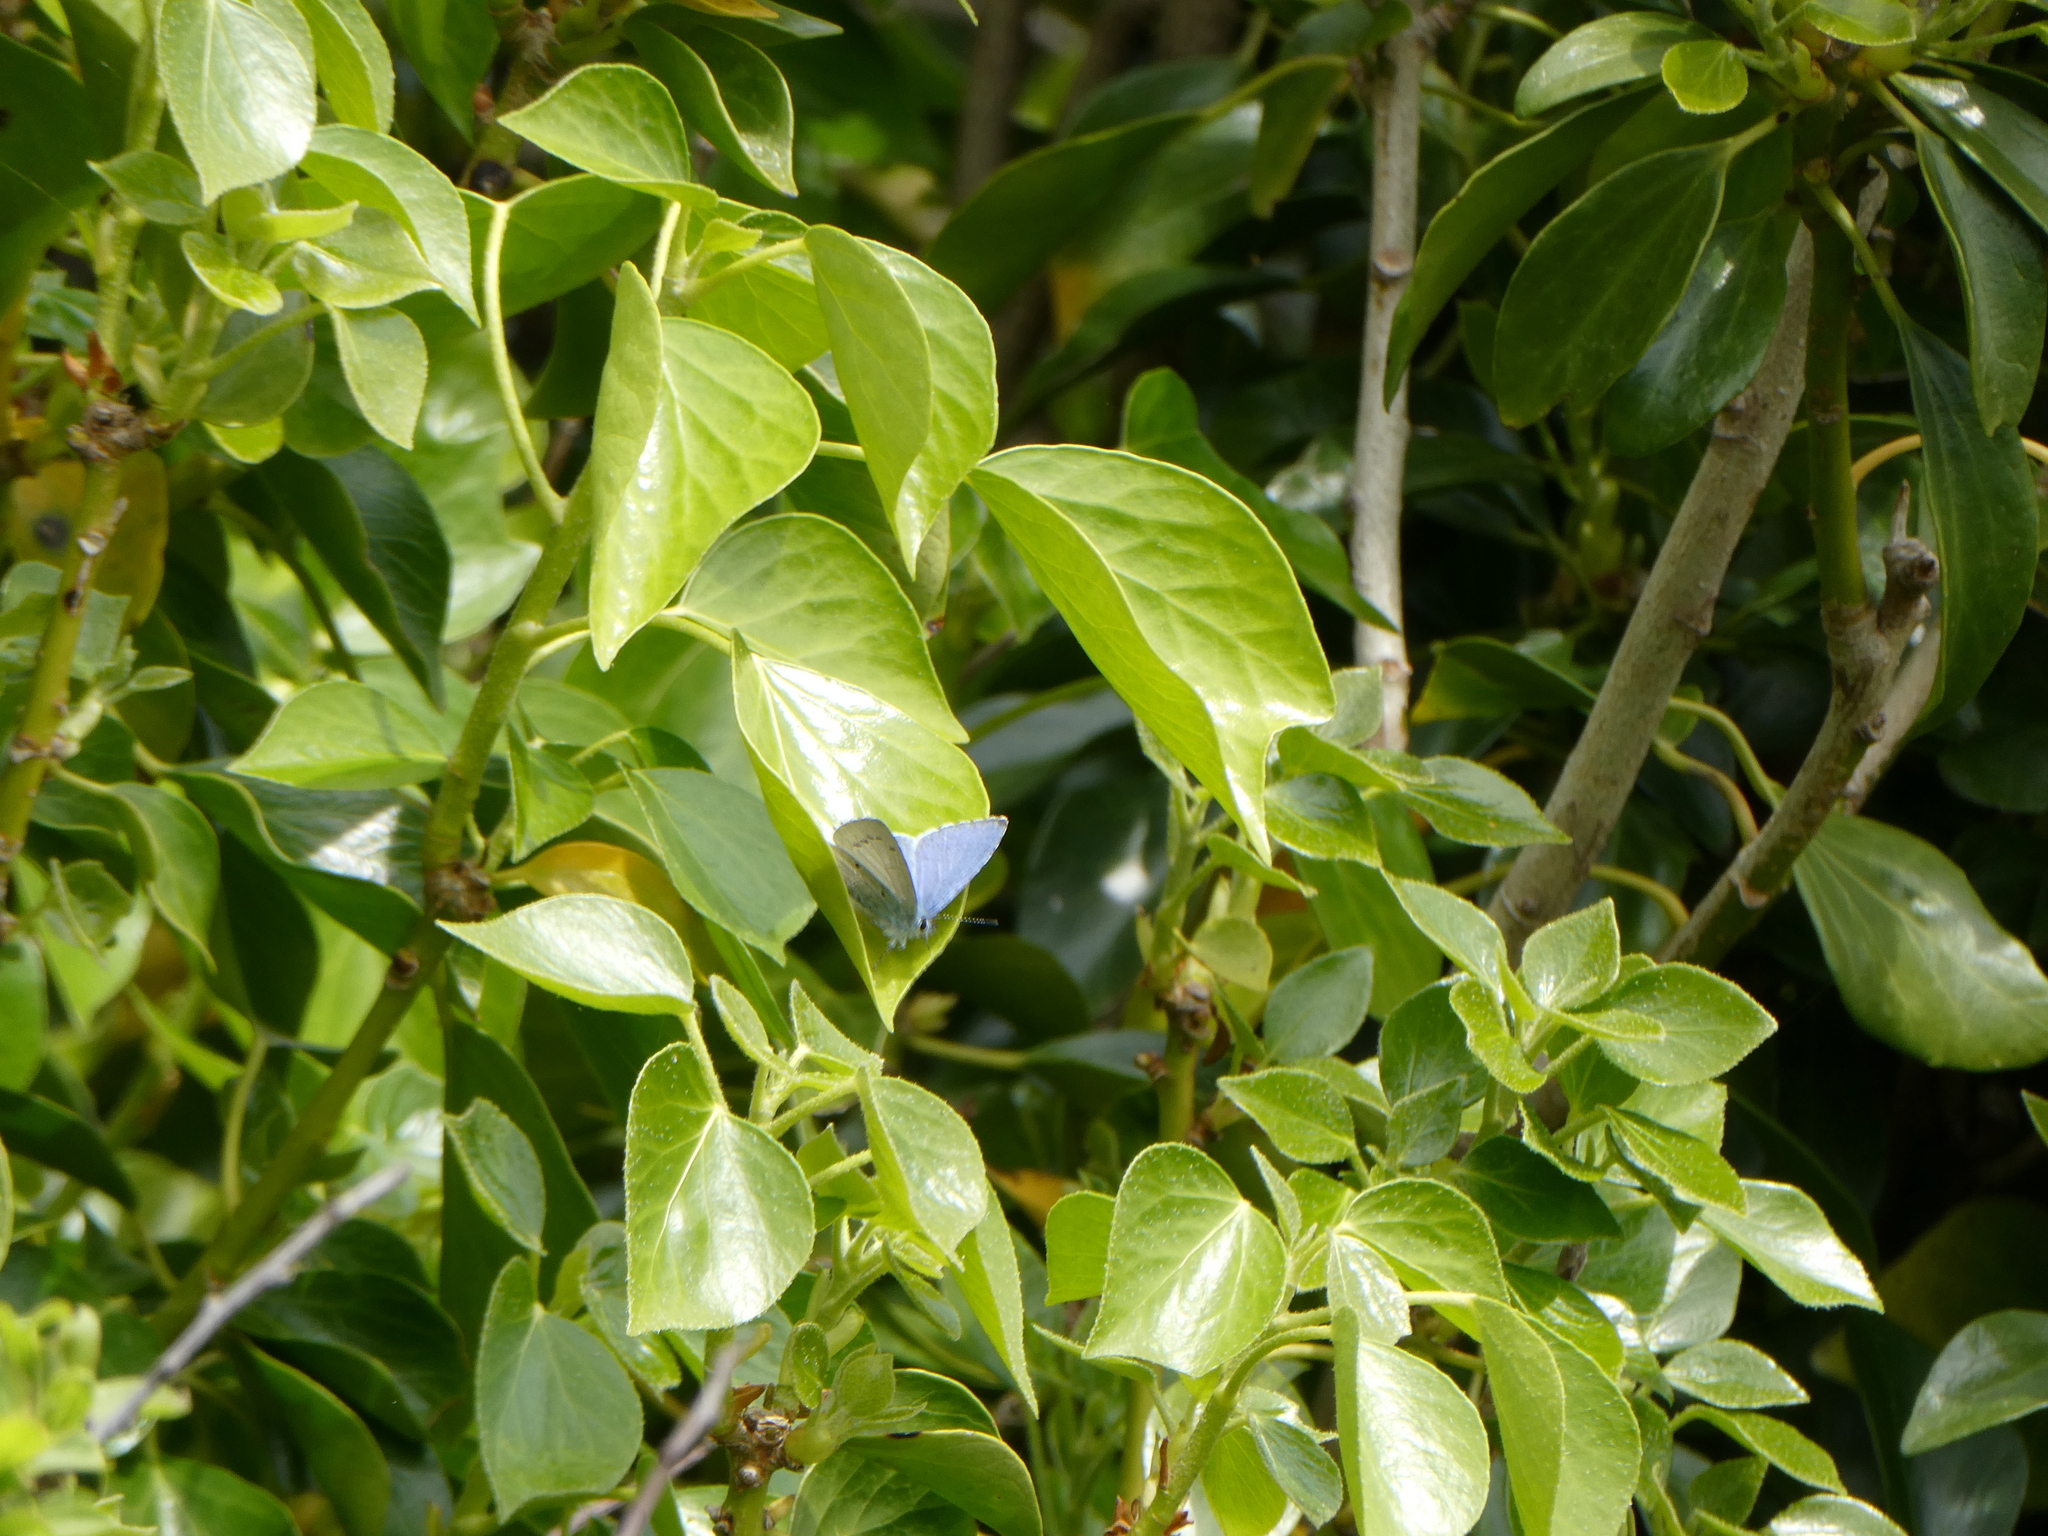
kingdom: Animalia
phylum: Arthropoda
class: Insecta
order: Lepidoptera
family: Lycaenidae
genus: Celastrina
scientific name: Celastrina argiolus
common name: Holly blue
